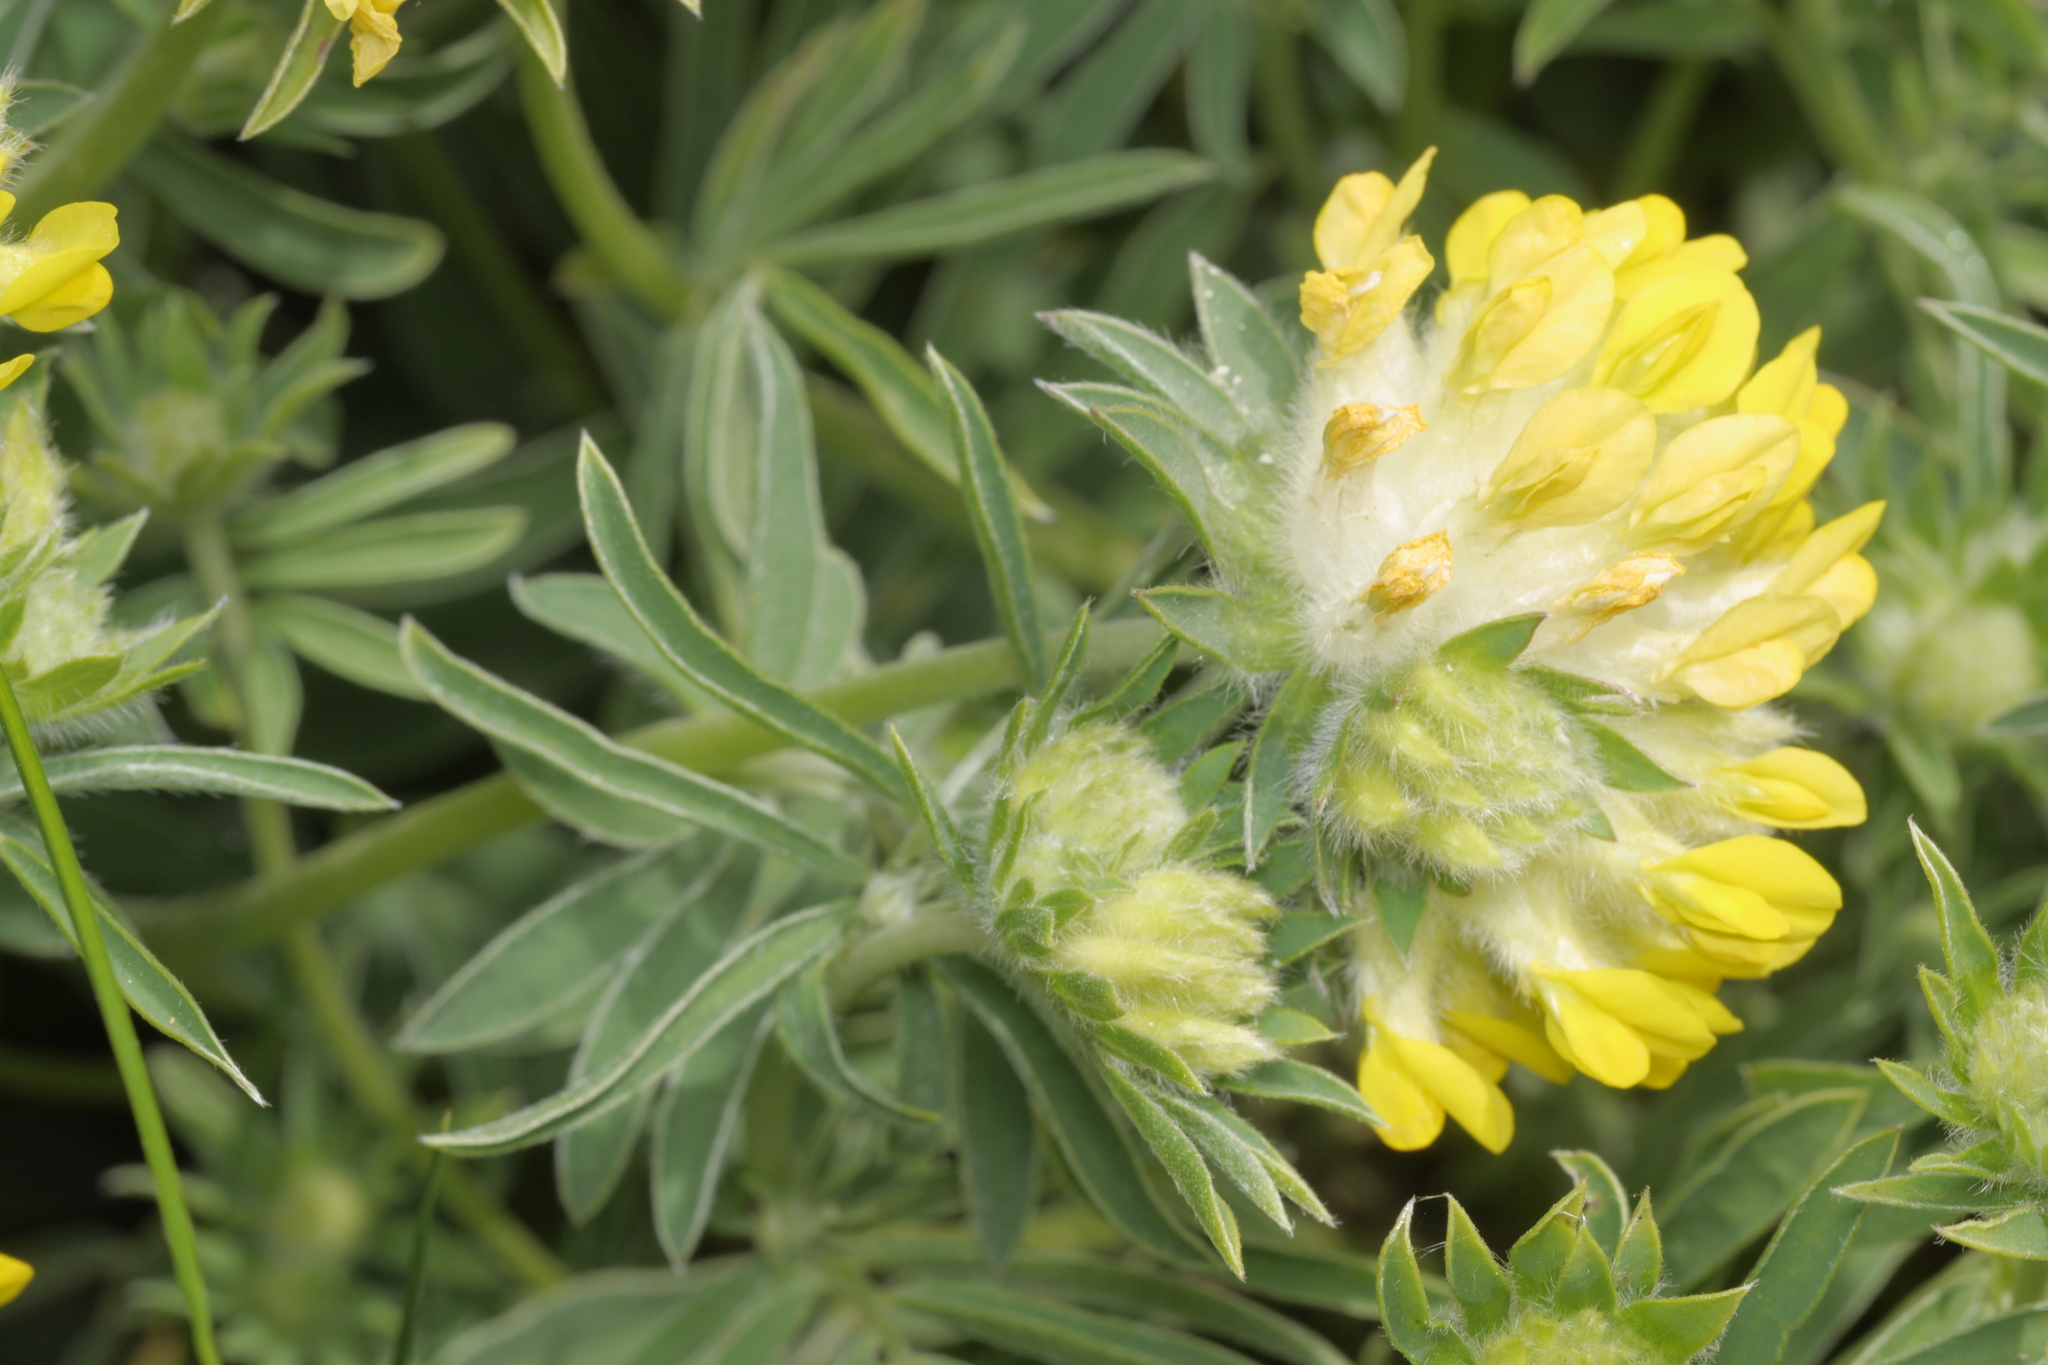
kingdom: Plantae
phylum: Tracheophyta
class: Magnoliopsida
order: Fabales
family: Fabaceae
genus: Anthyllis
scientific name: Anthyllis vulneraria
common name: Kidney vetch
